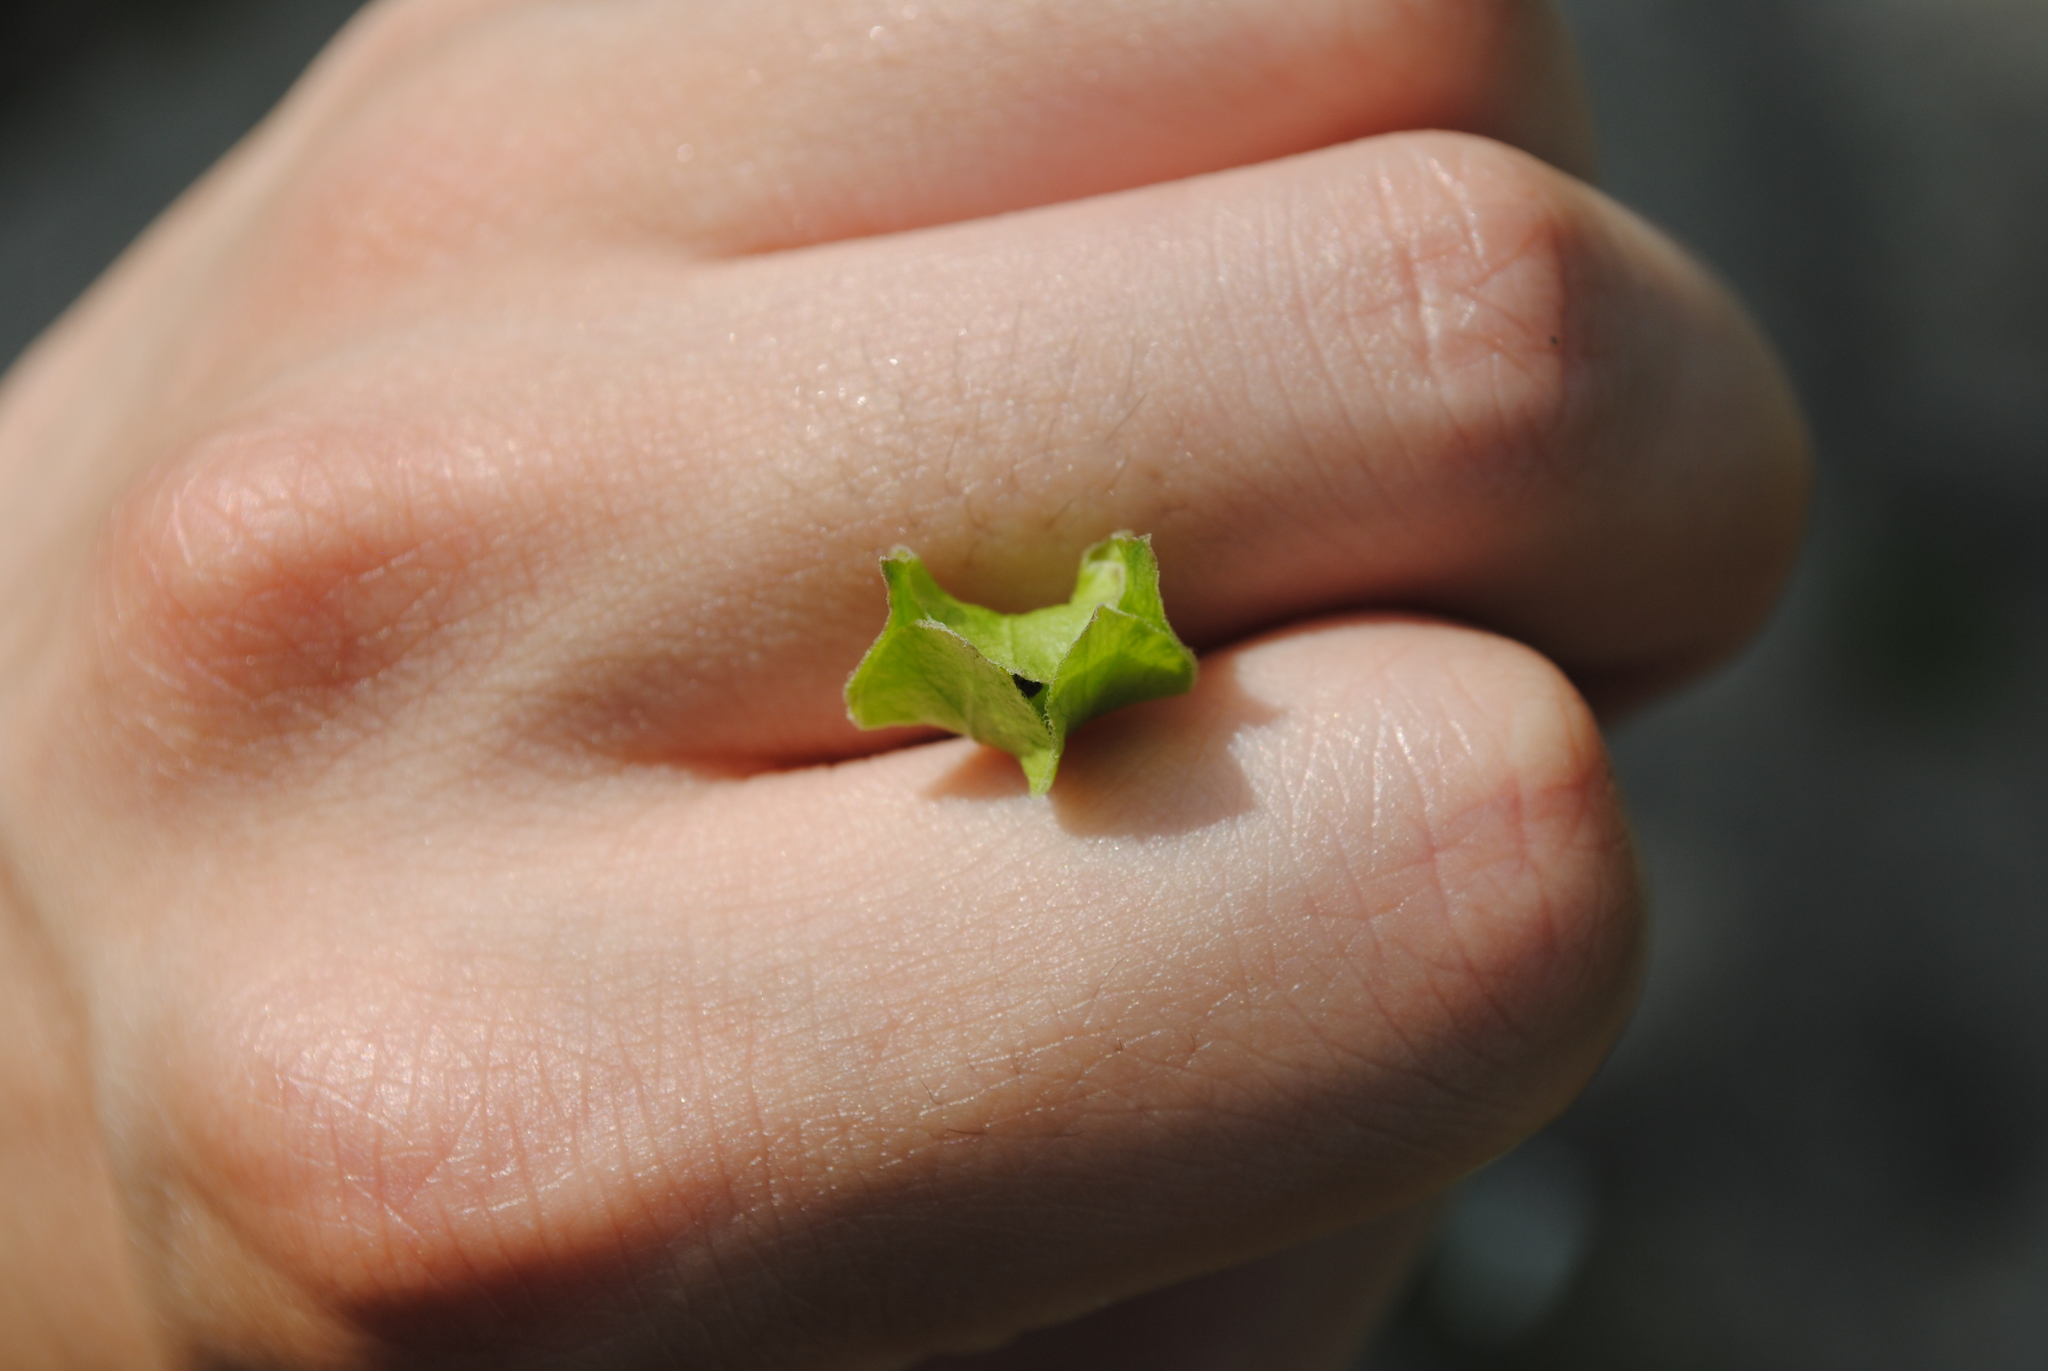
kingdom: Plantae
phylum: Tracheophyta
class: Magnoliopsida
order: Caryophyllales
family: Nyctaginaceae
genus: Mirabilis
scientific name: Mirabilis nyctaginea
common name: Umbrella wort
